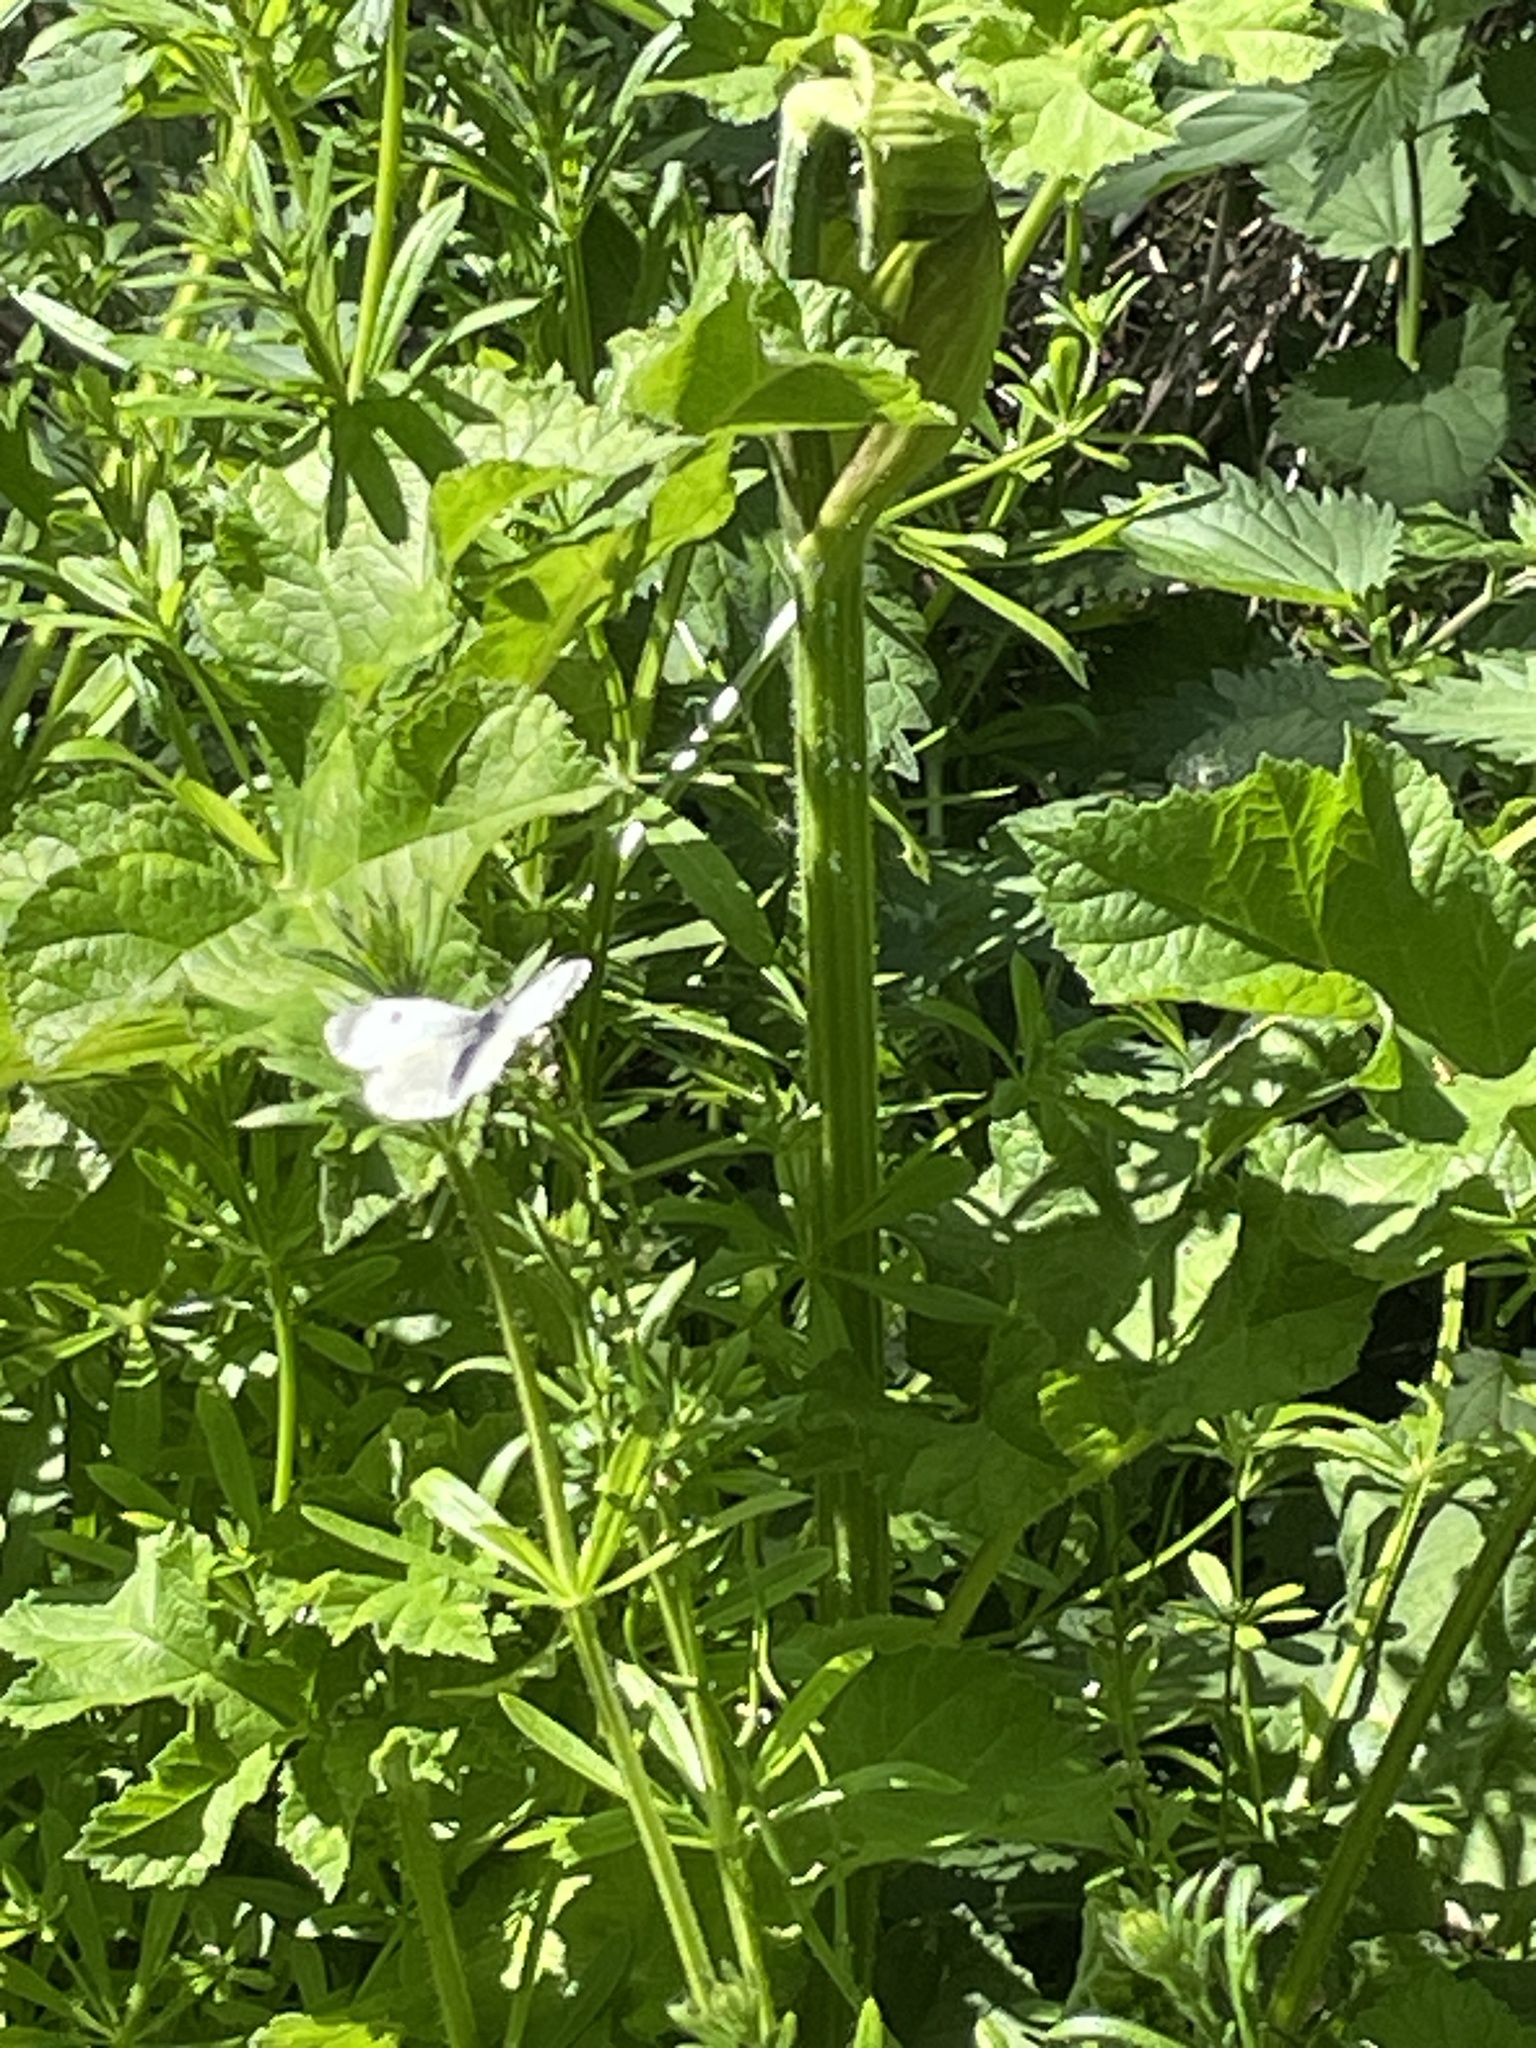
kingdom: Animalia
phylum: Arthropoda
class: Insecta
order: Lepidoptera
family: Pieridae
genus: Anthocharis
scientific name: Anthocharis cardamines
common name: Orange-tip
